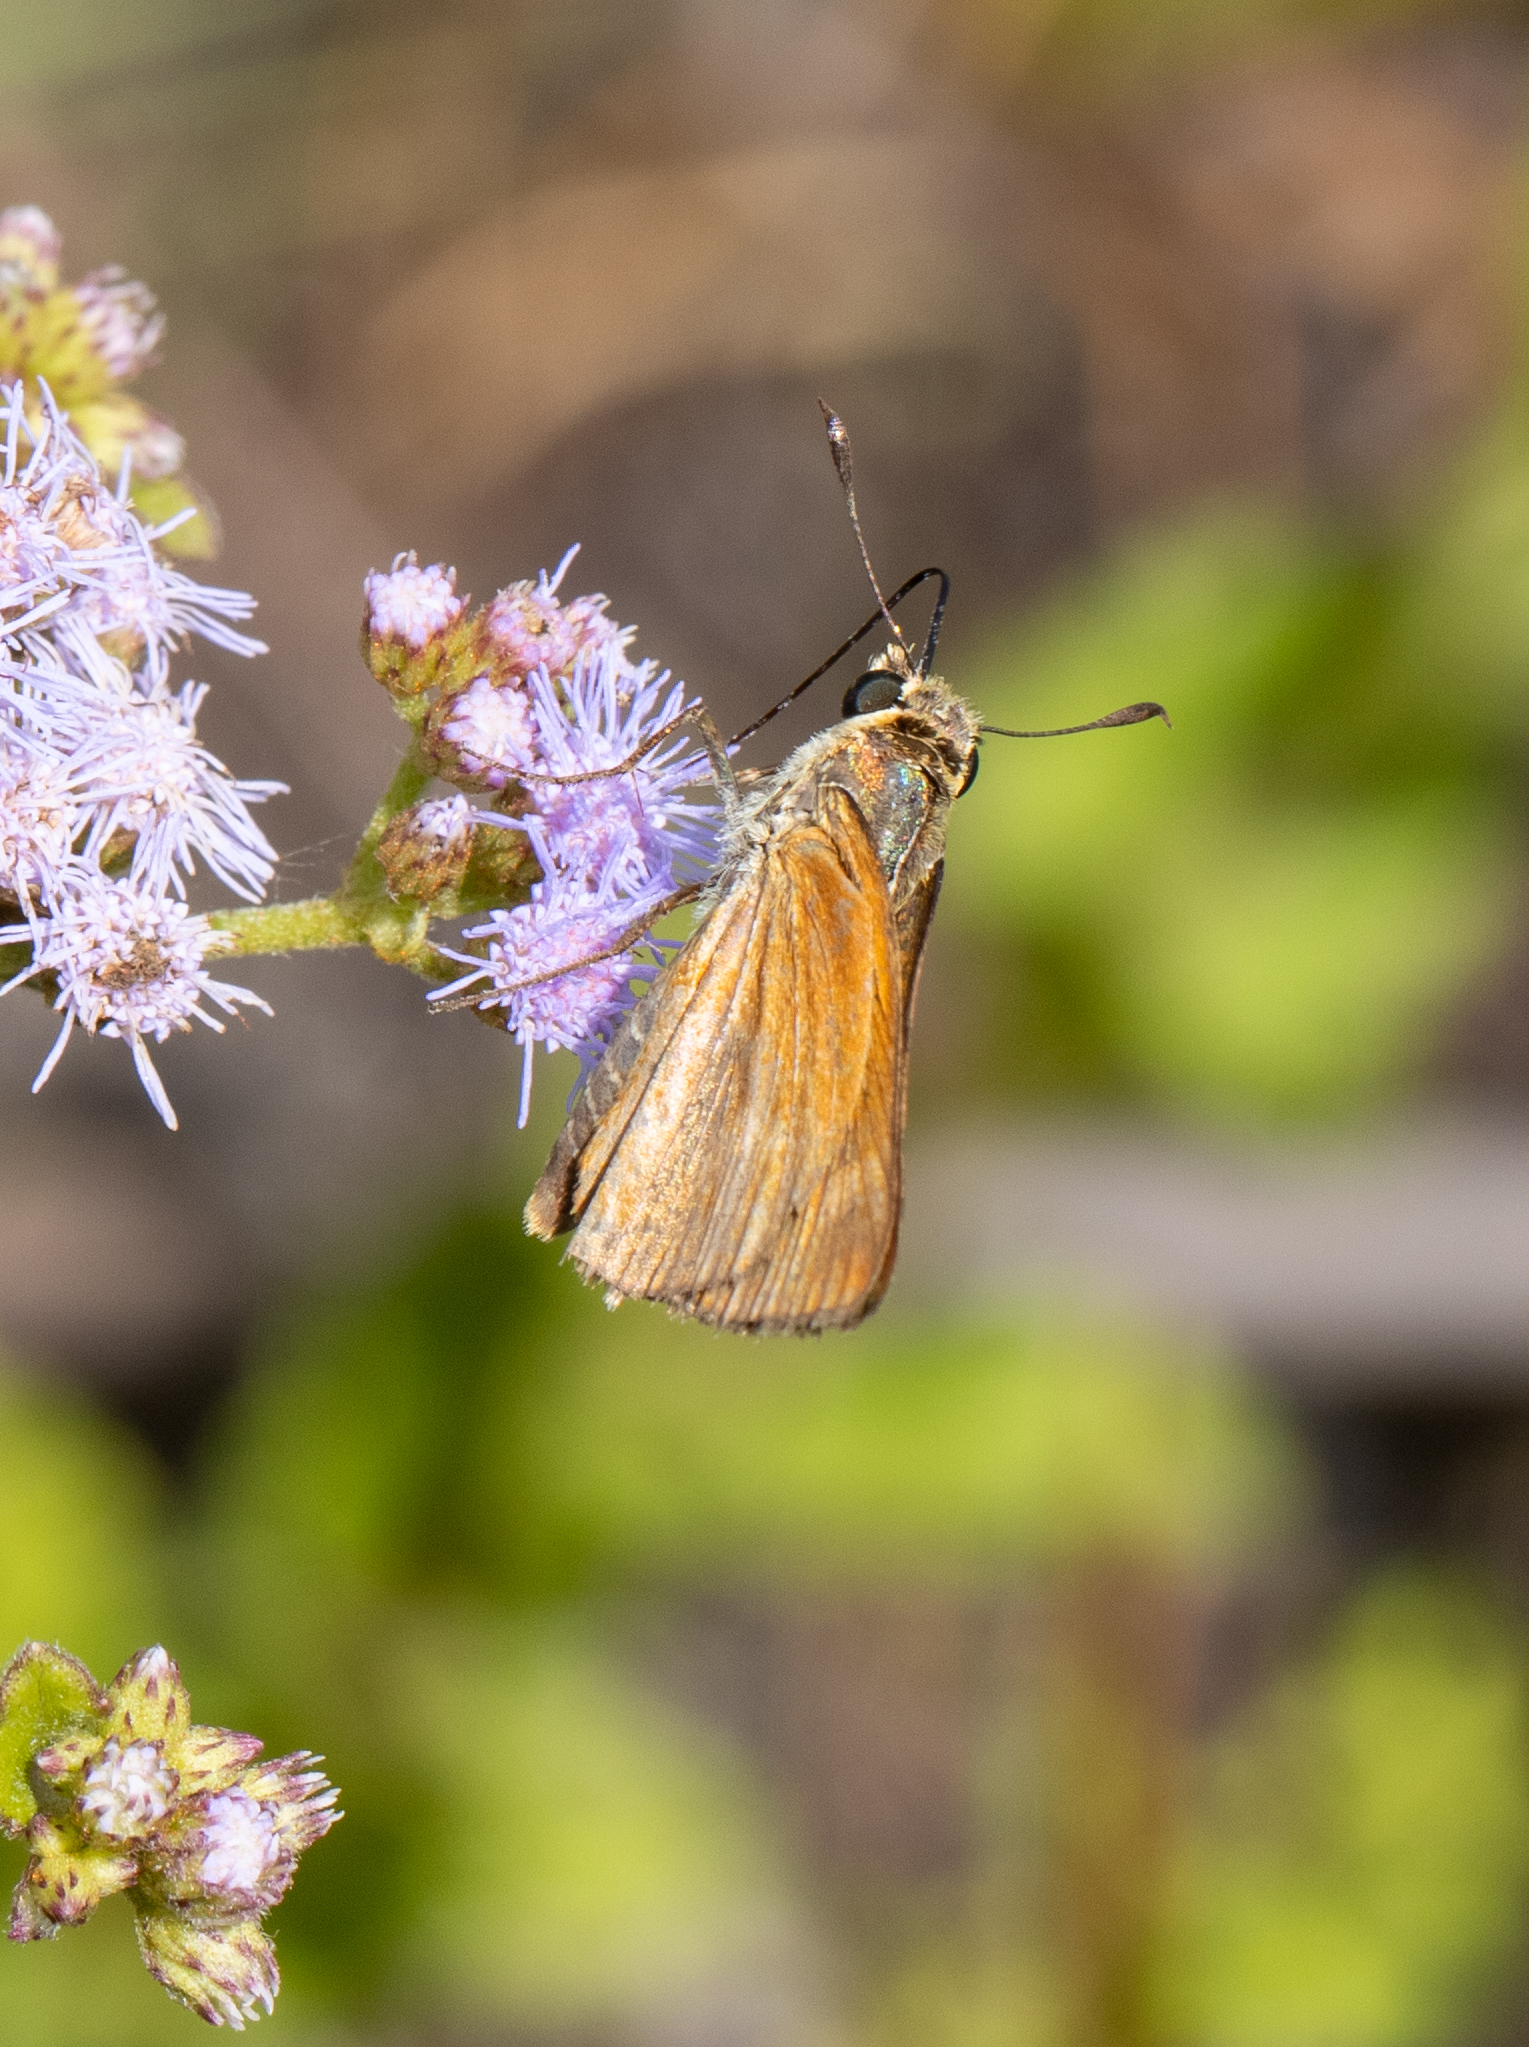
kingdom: Animalia
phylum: Arthropoda
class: Insecta
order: Lepidoptera
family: Hesperiidae
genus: Polites
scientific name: Polites otho
